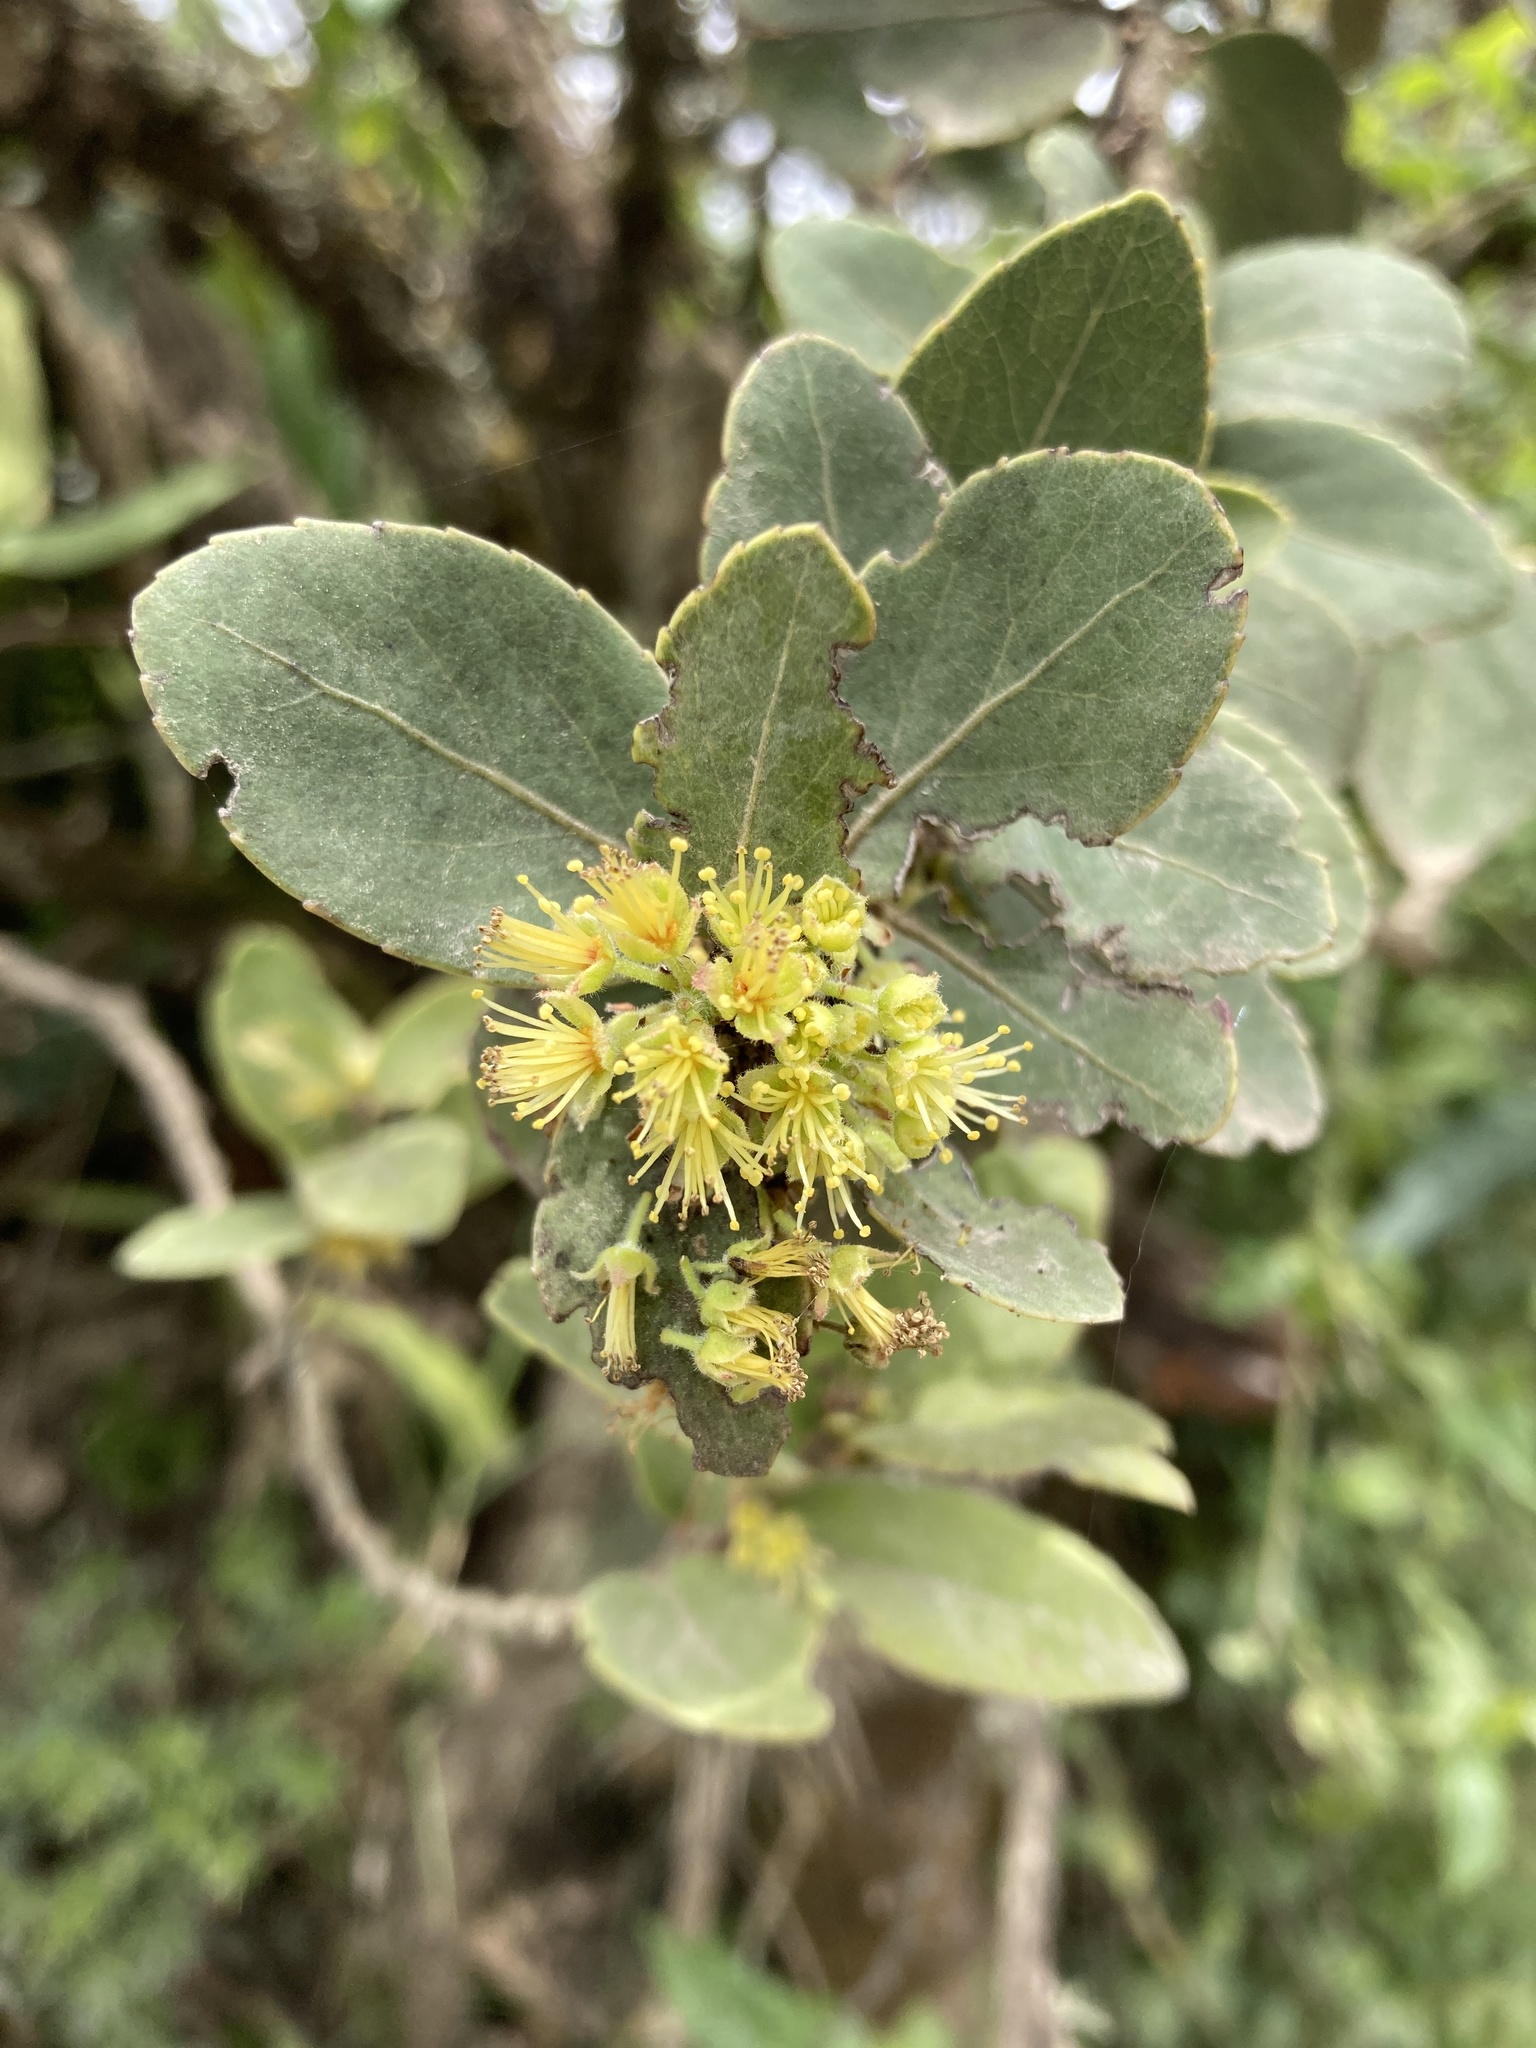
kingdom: Plantae
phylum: Tracheophyta
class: Magnoliopsida
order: Malpighiales
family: Salicaceae
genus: Xylosma
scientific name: Xylosma spiculifera
